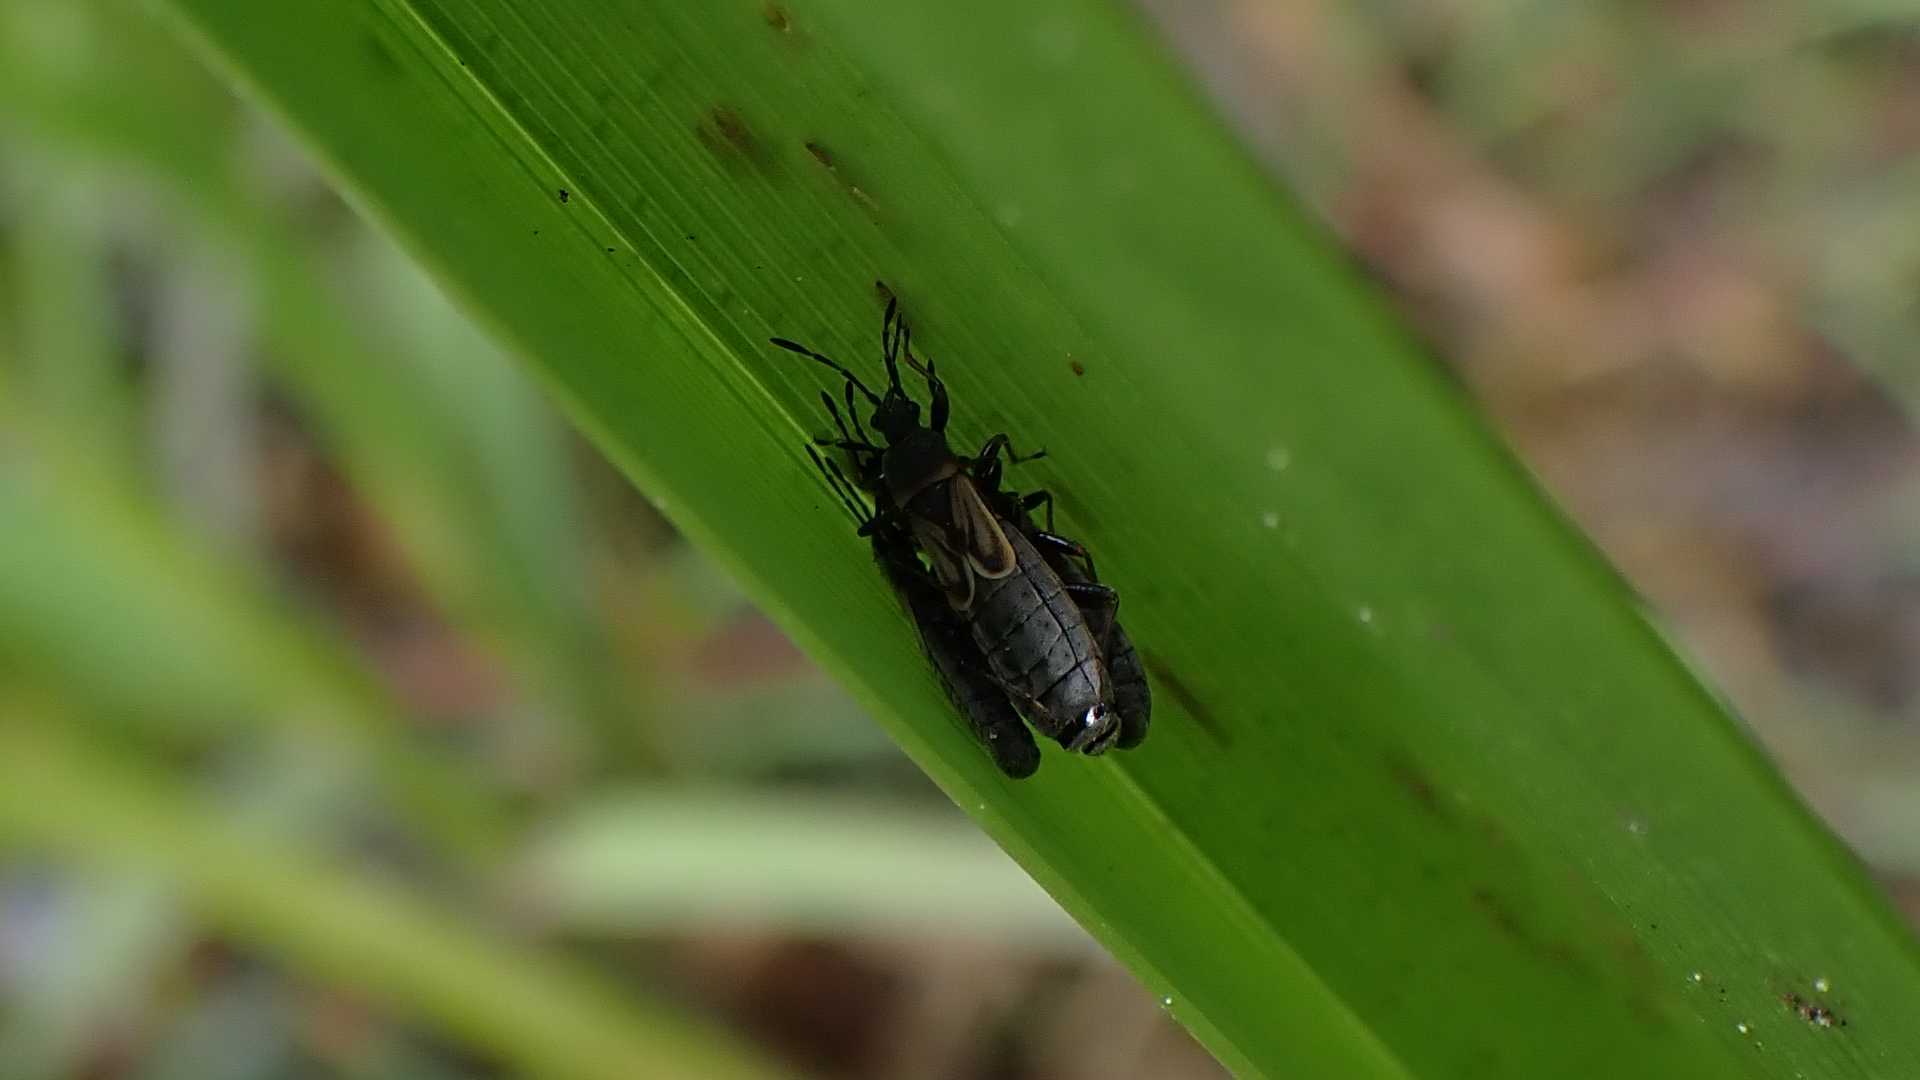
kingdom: Animalia
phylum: Arthropoda
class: Insecta
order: Hemiptera
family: Blissidae
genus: Ischnodemus
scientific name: Ischnodemus sabuleti
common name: European cinchbug
